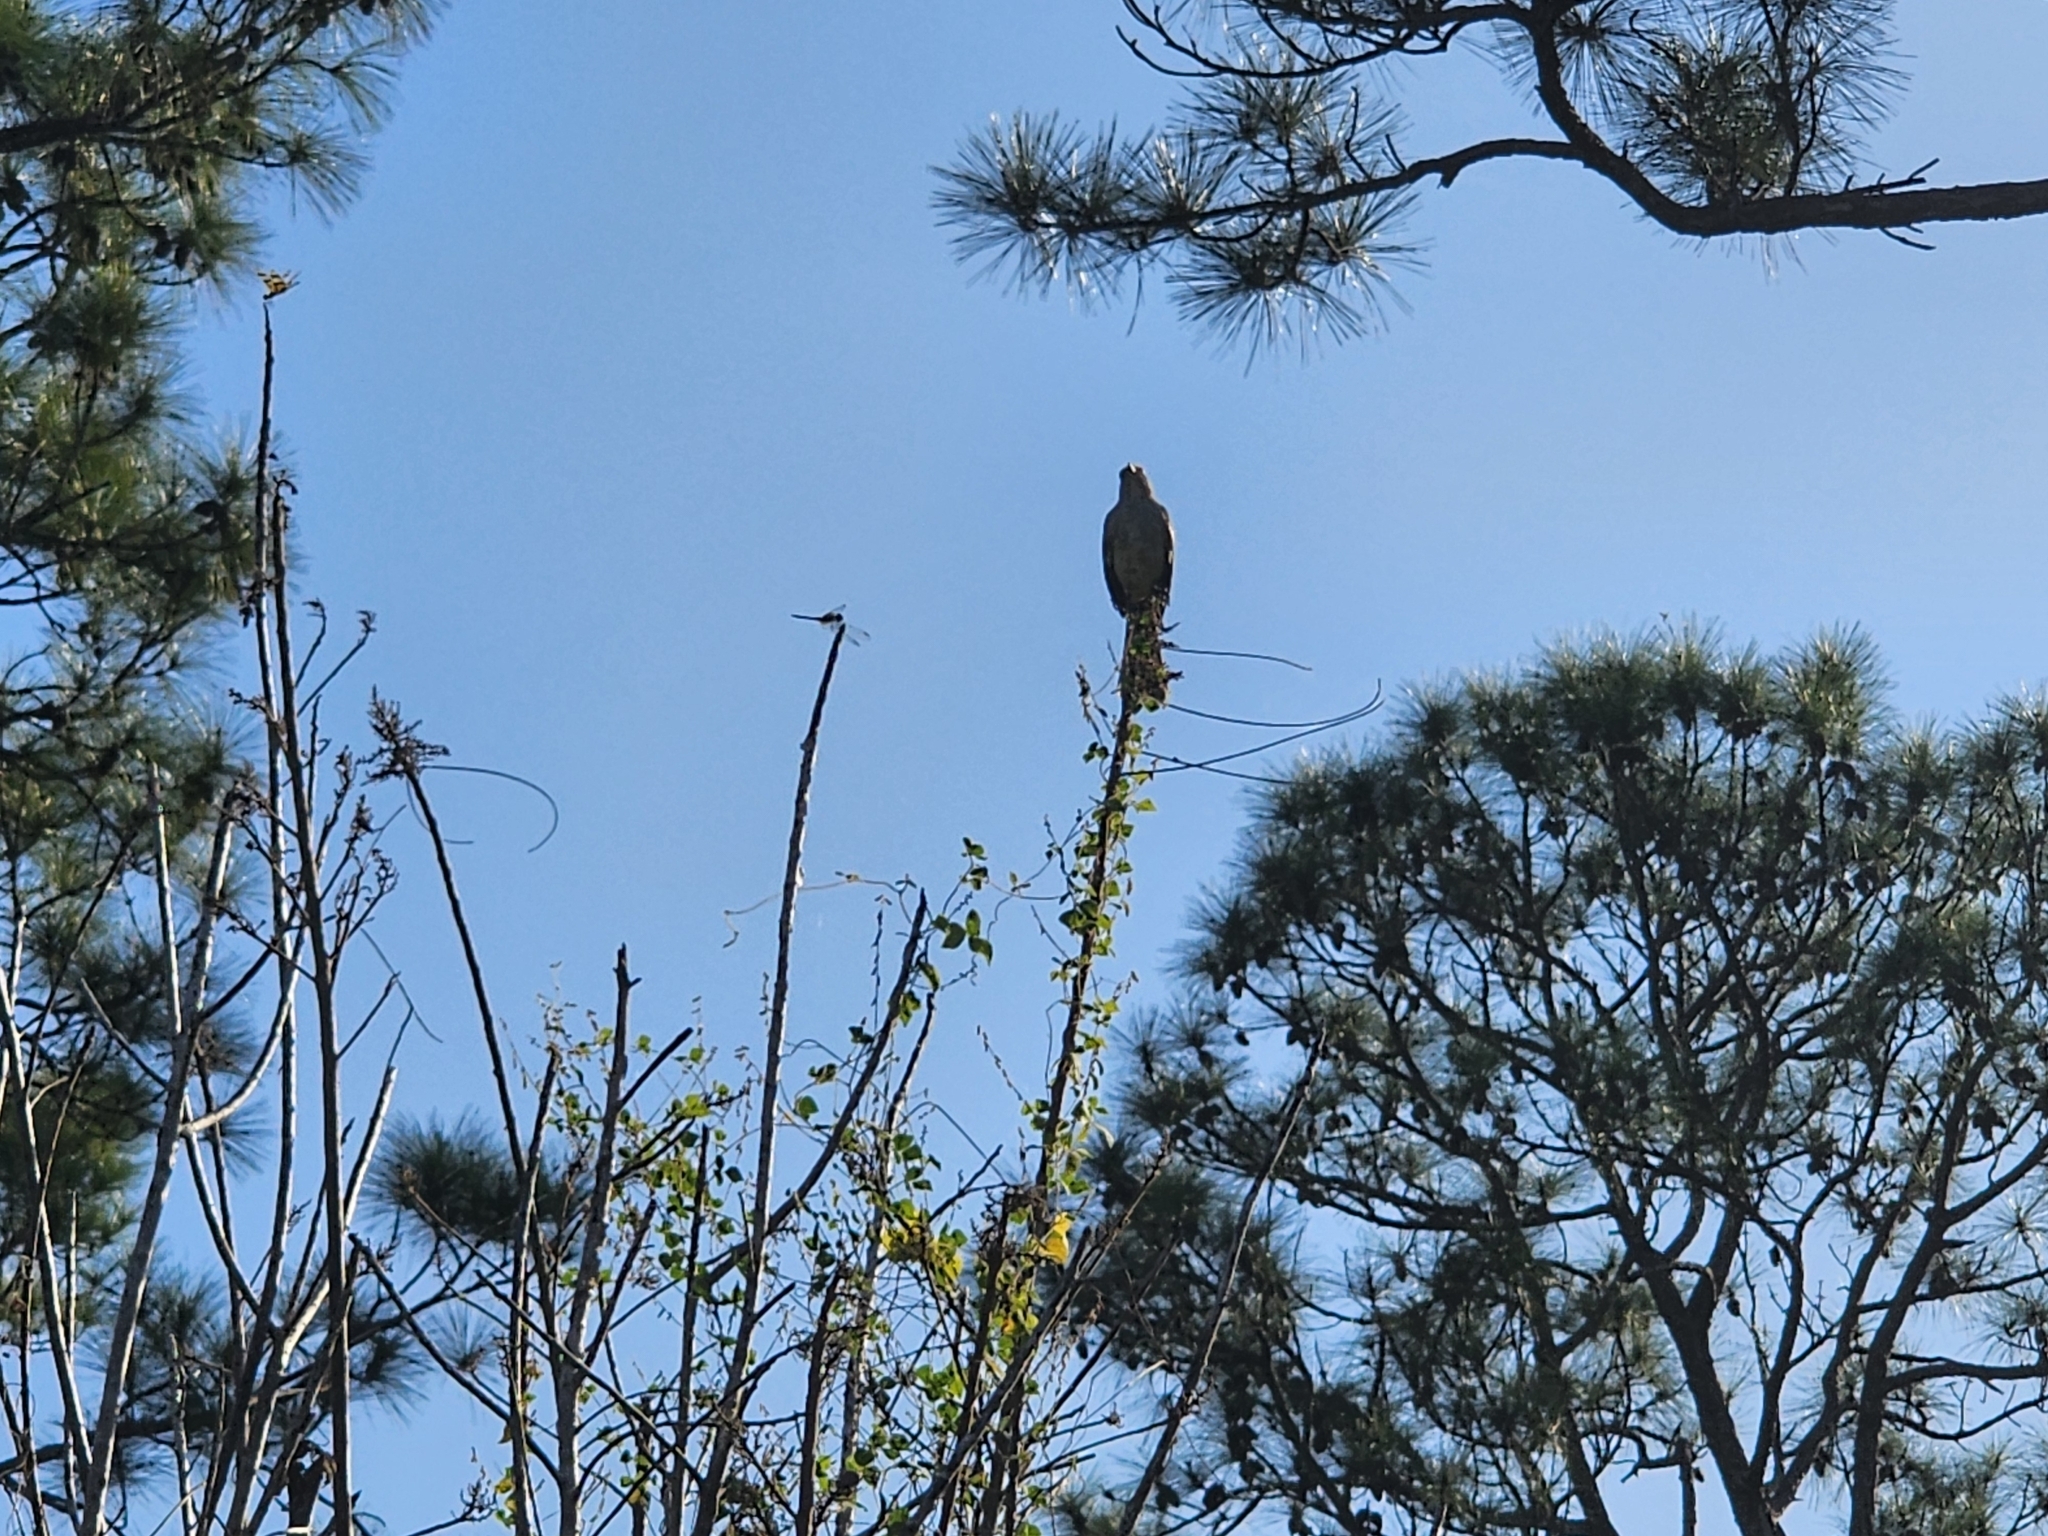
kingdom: Animalia
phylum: Chordata
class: Aves
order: Passeriformes
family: Mimidae
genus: Mimus
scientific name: Mimus polyglottos
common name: Northern mockingbird
